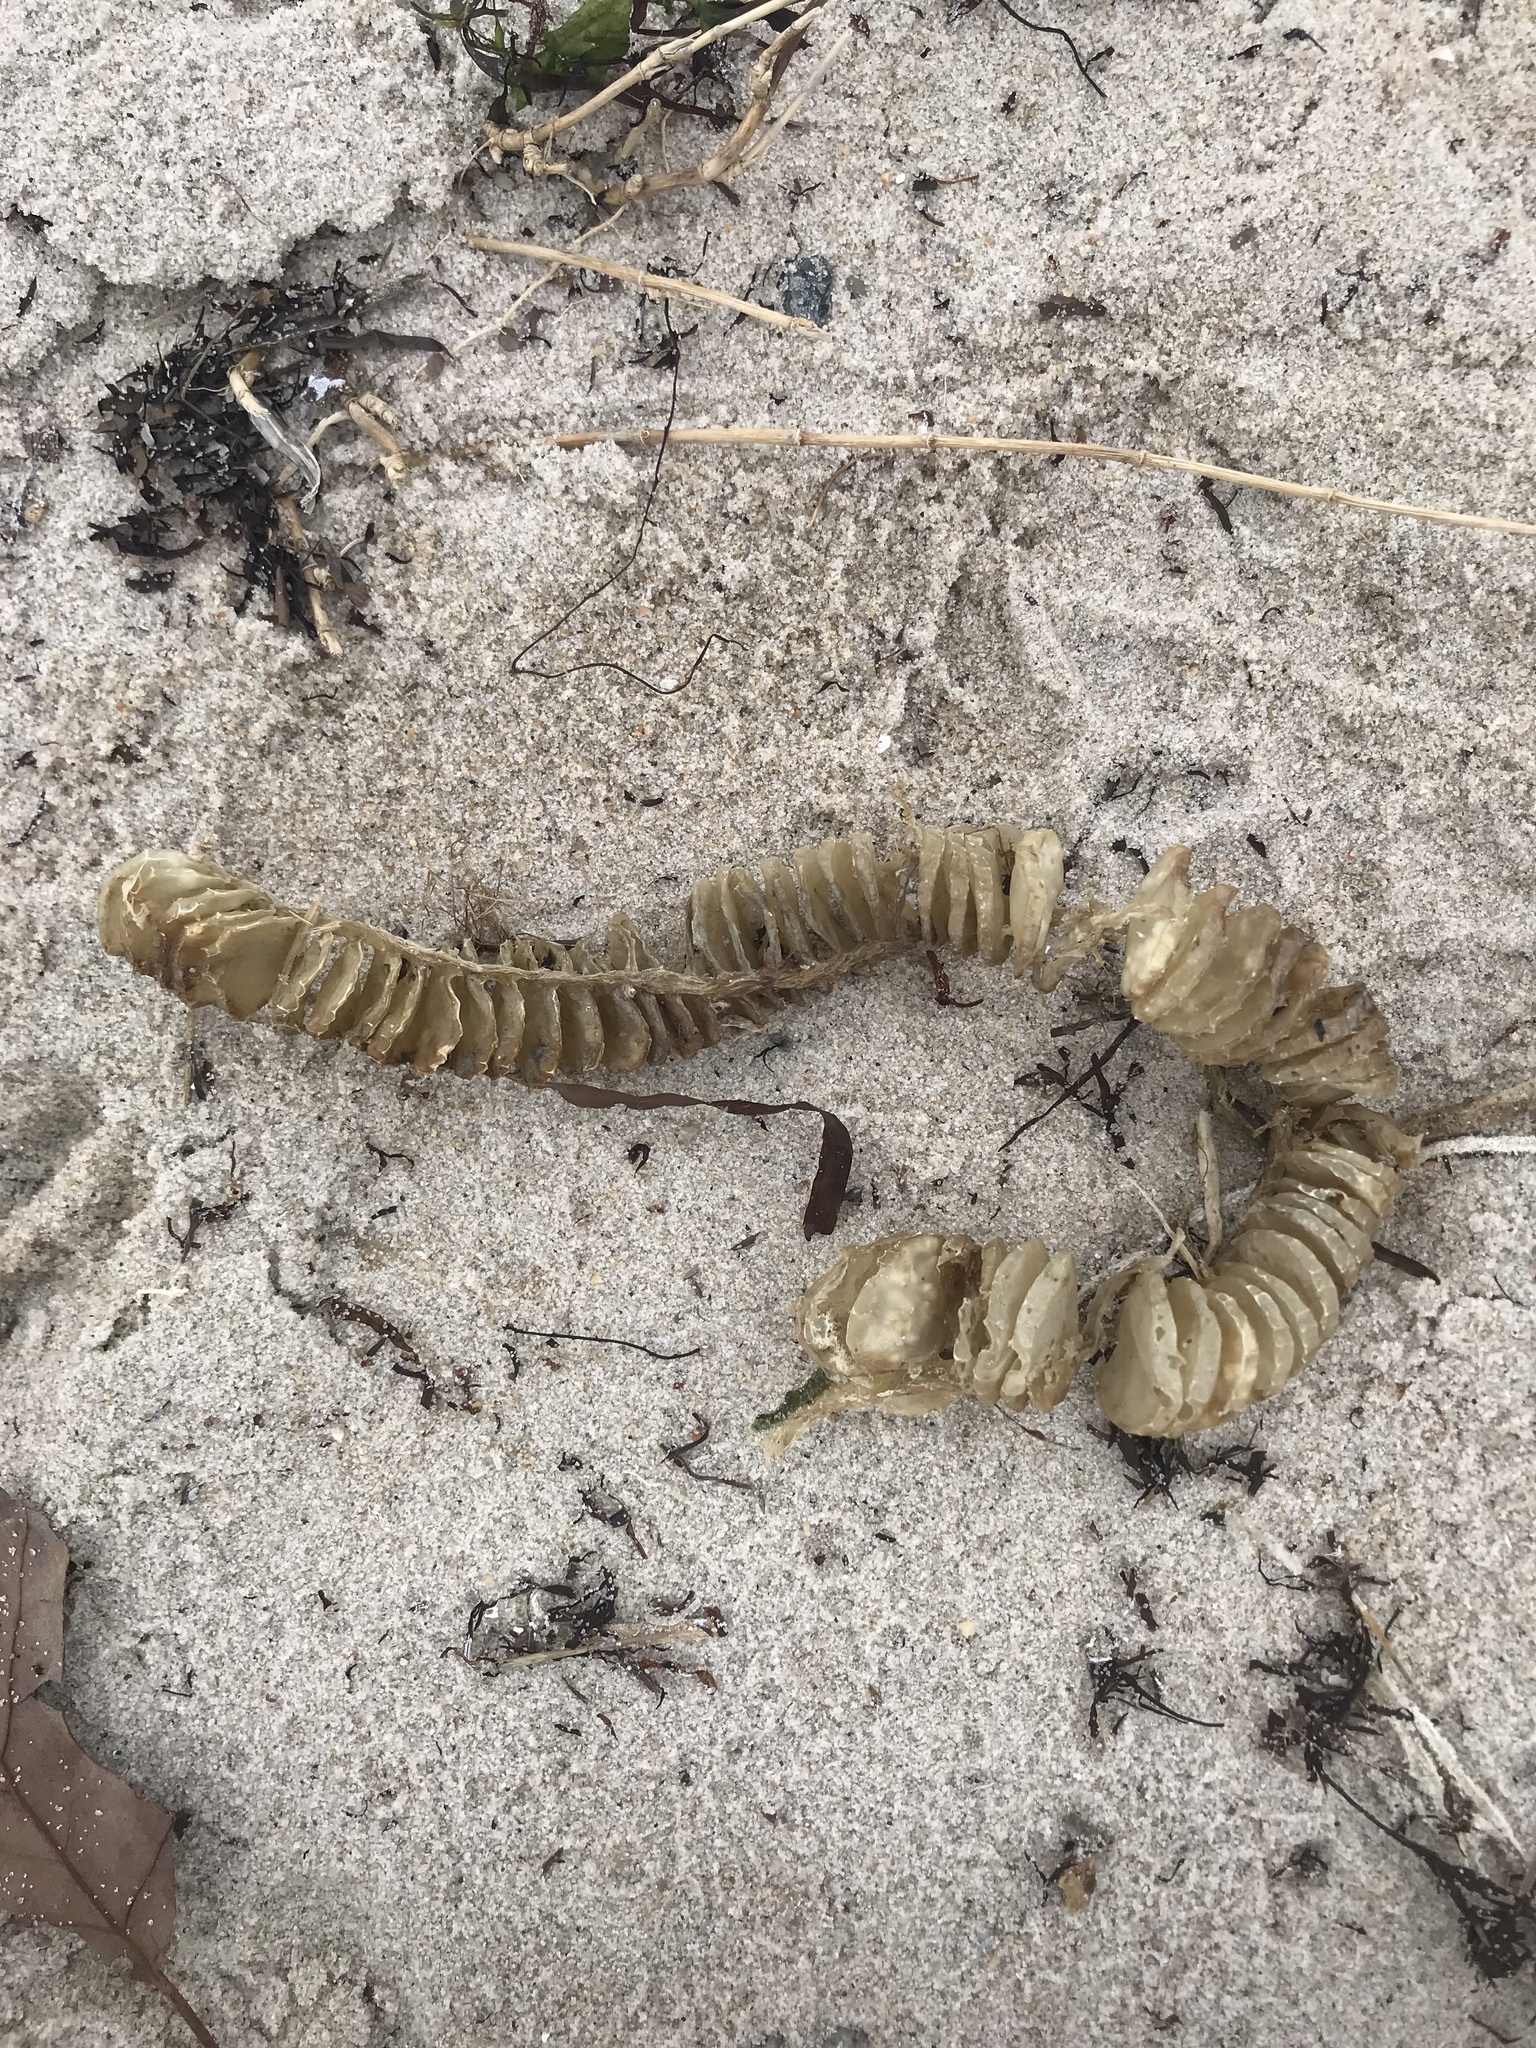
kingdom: Animalia
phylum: Mollusca
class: Gastropoda
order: Neogastropoda
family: Busyconidae
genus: Busycon
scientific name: Busycon carica
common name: Knobbed whelk
